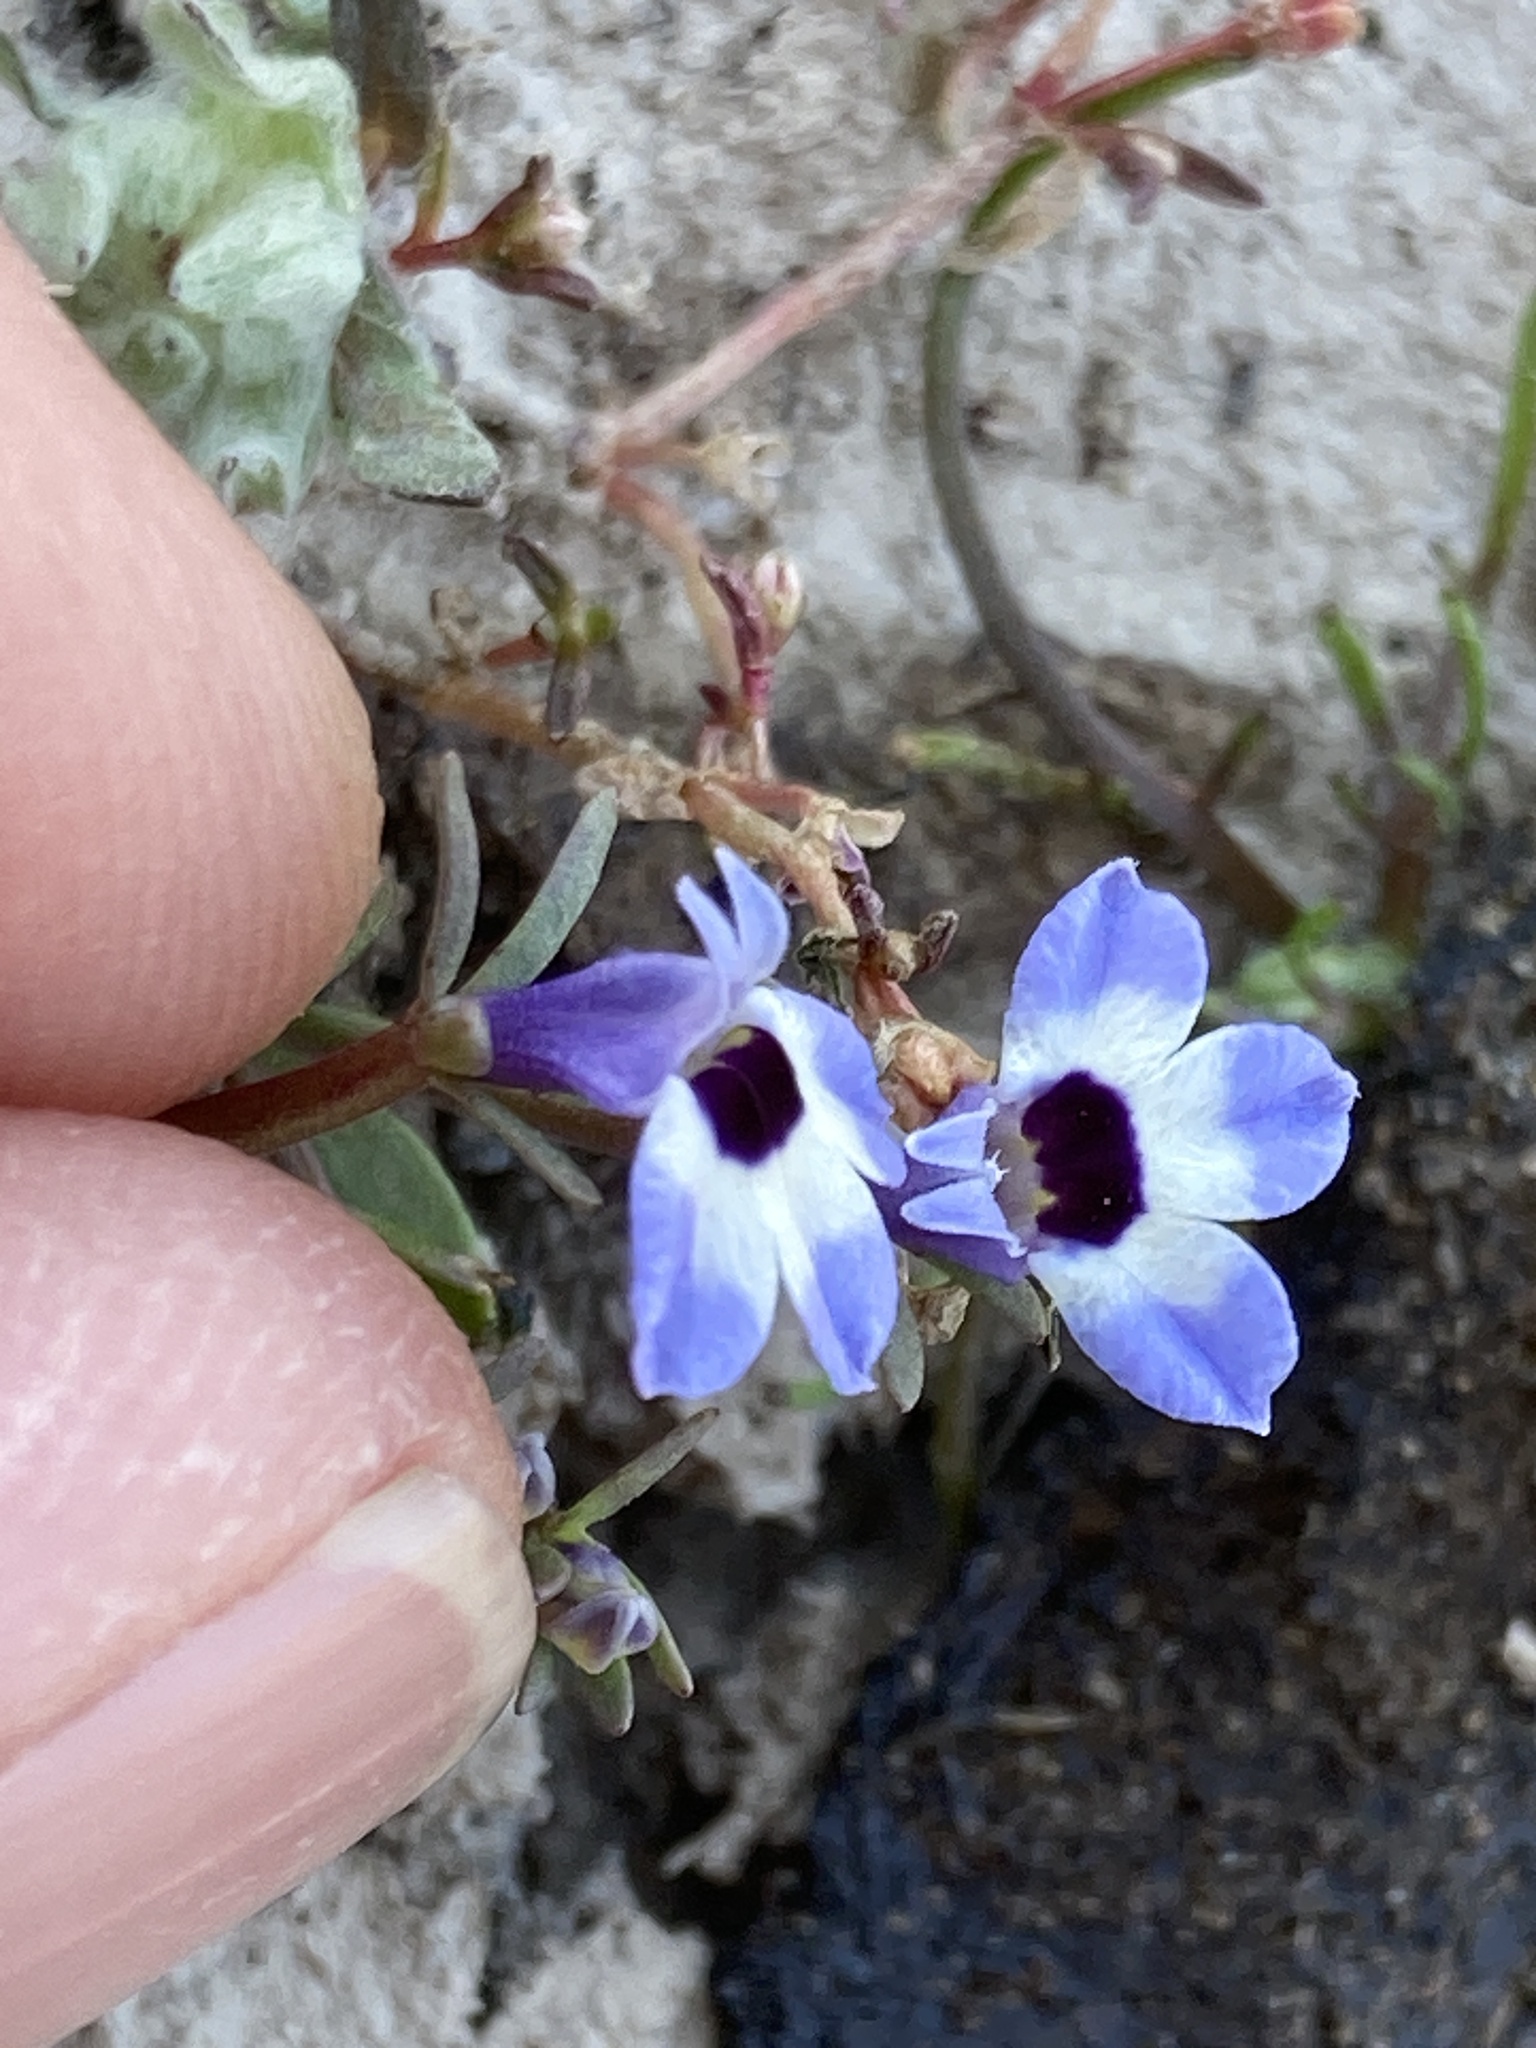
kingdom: Plantae
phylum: Tracheophyta
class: Magnoliopsida
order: Asterales
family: Campanulaceae
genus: Downingia
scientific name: Downingia concolor
